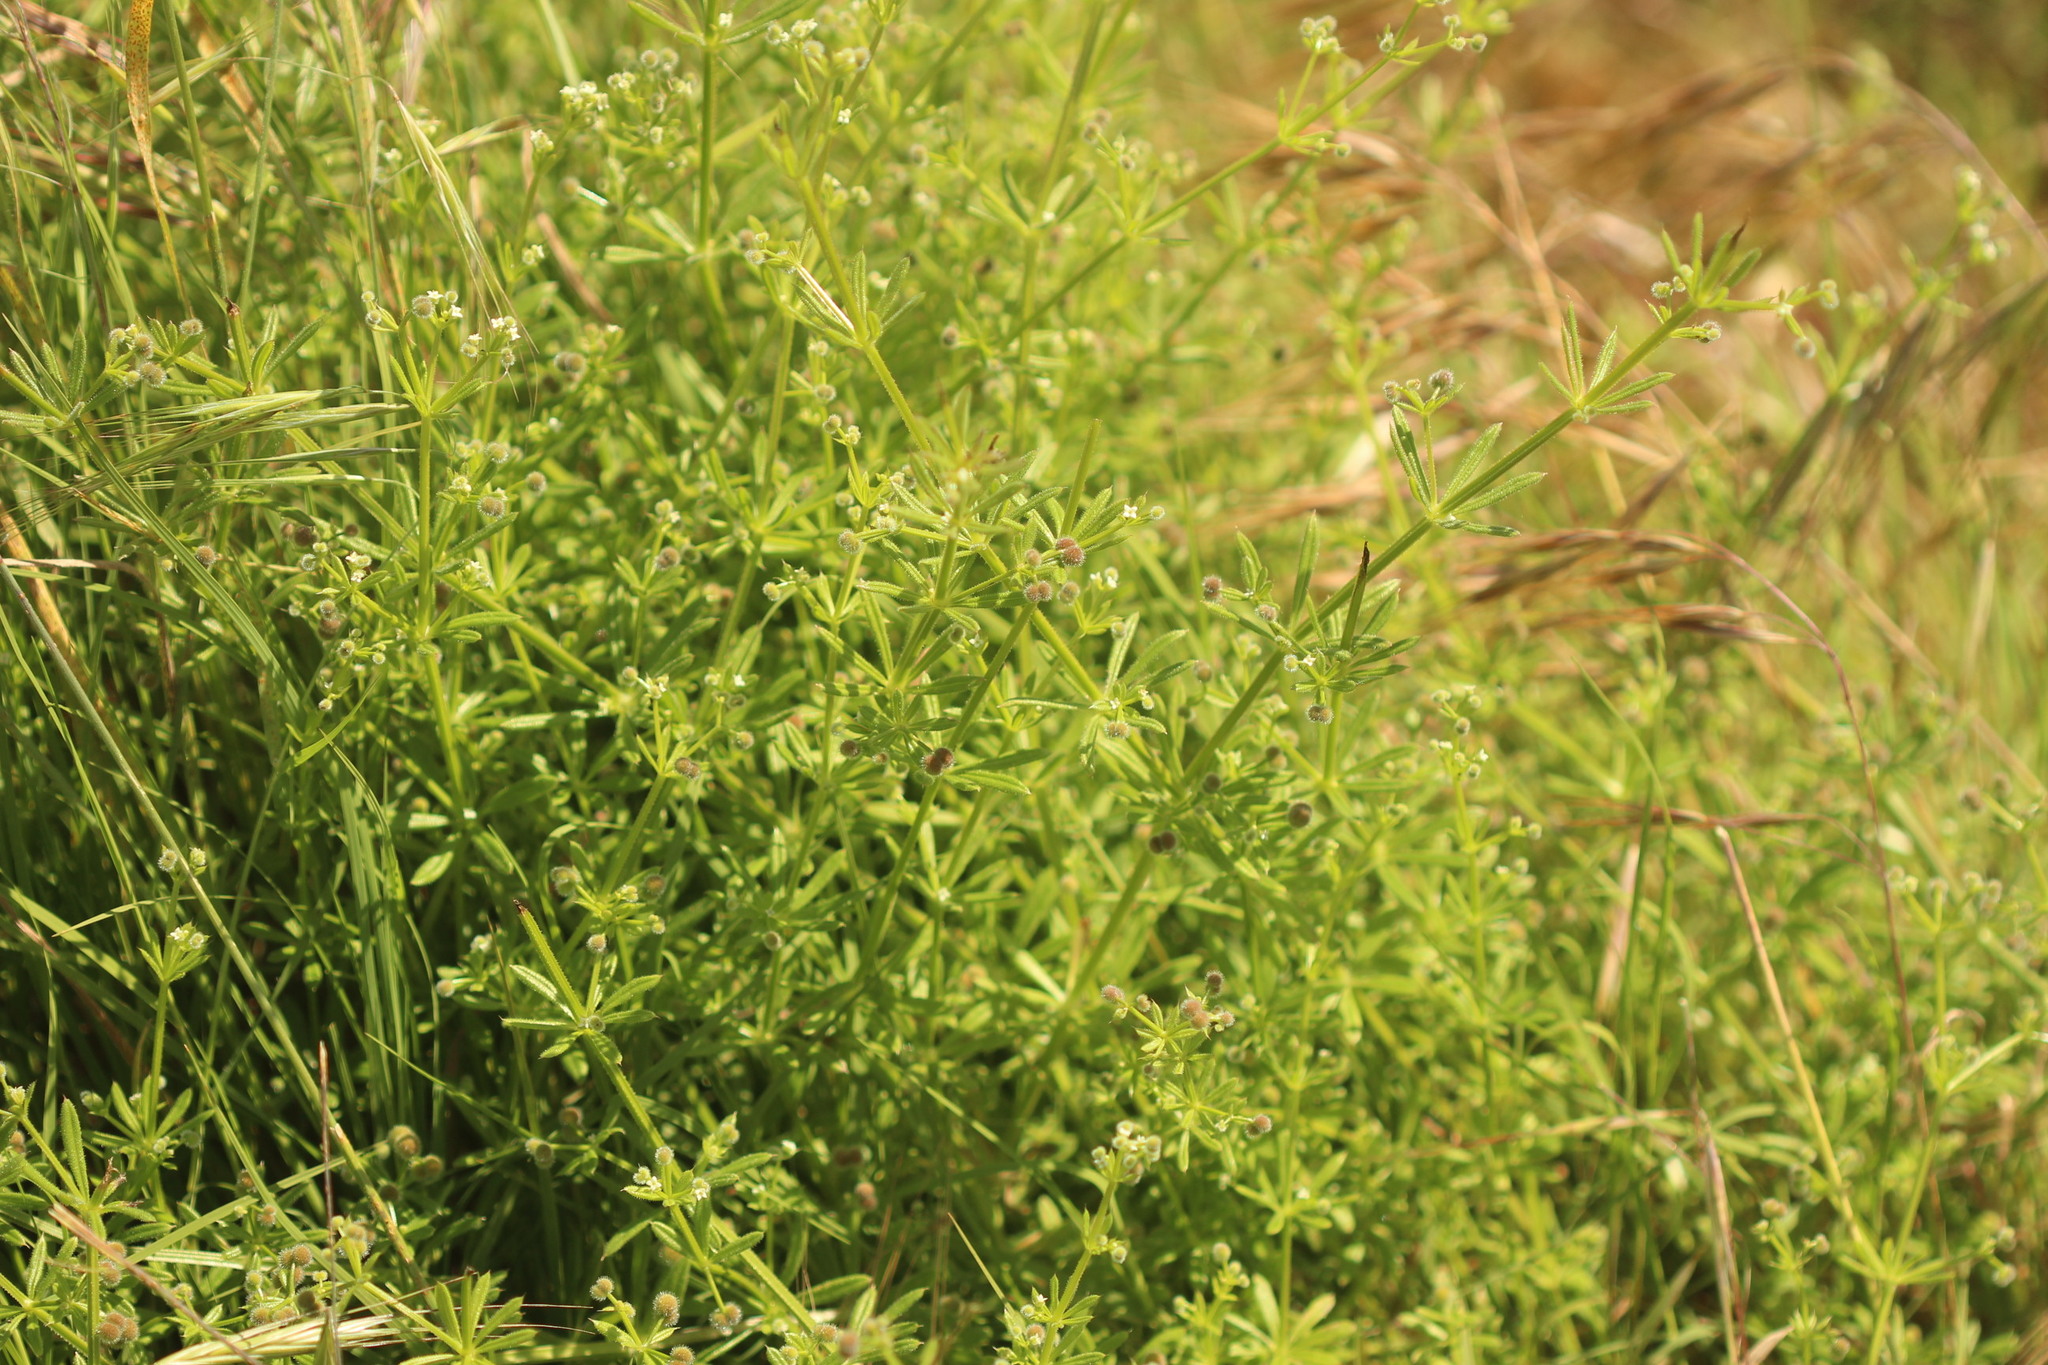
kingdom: Plantae
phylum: Tracheophyta
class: Magnoliopsida
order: Gentianales
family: Rubiaceae
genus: Galium
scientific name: Galium aparine
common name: Cleavers
